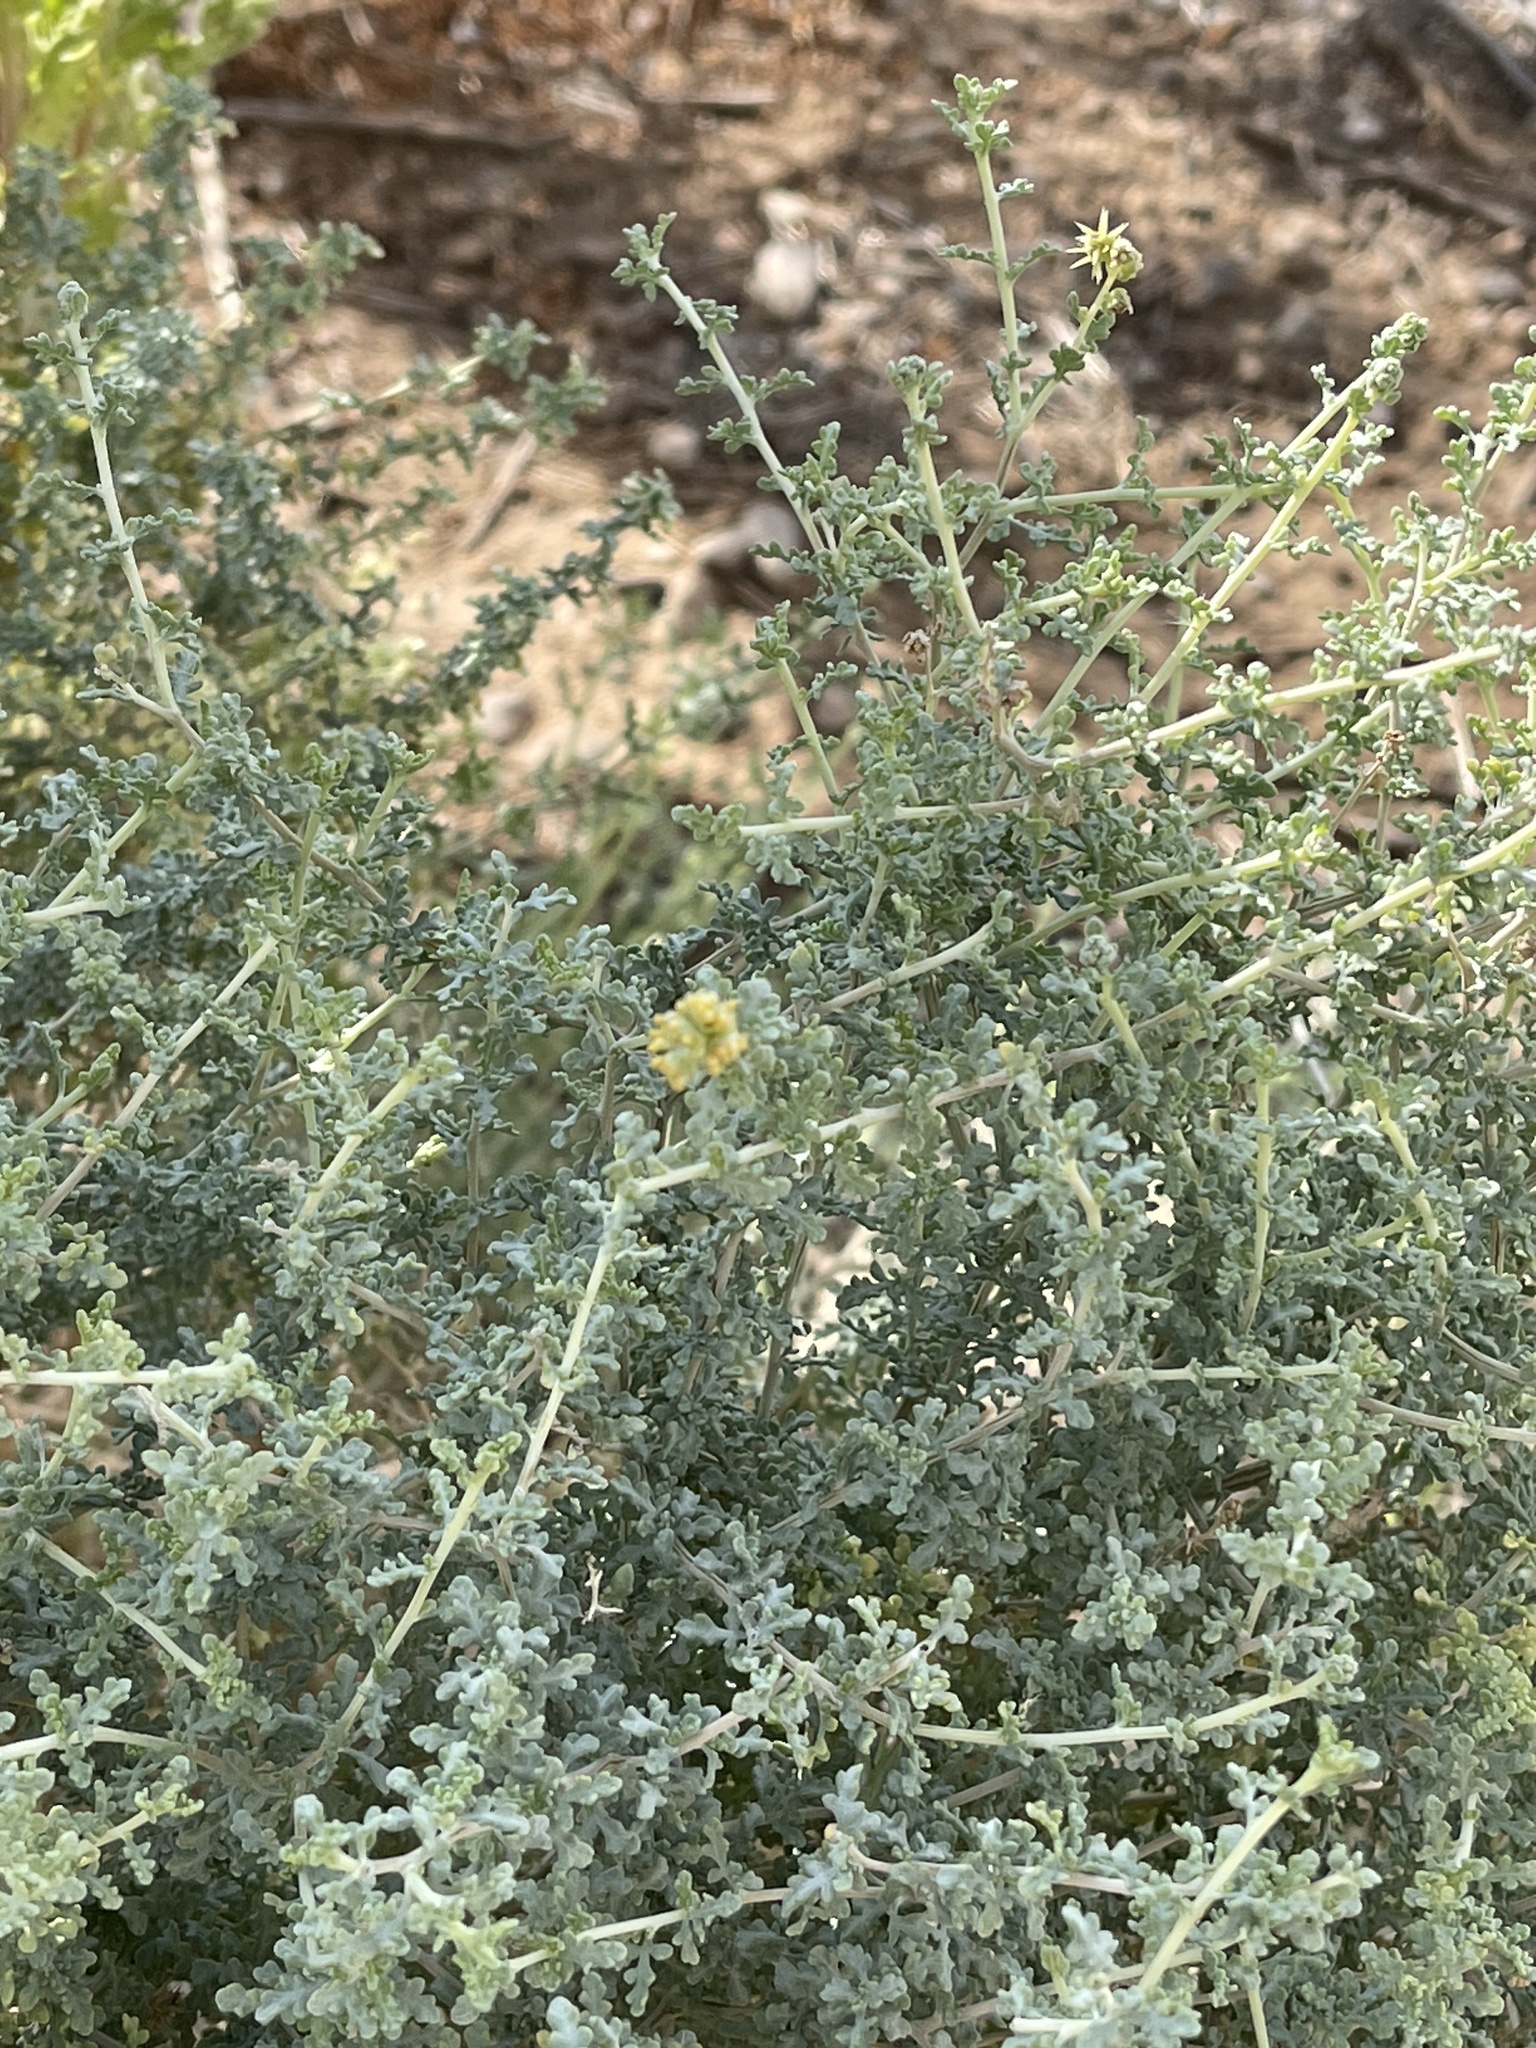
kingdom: Plantae
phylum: Tracheophyta
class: Magnoliopsida
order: Asterales
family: Asteraceae
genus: Ambrosia
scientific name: Ambrosia dumosa
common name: Bur-sage
